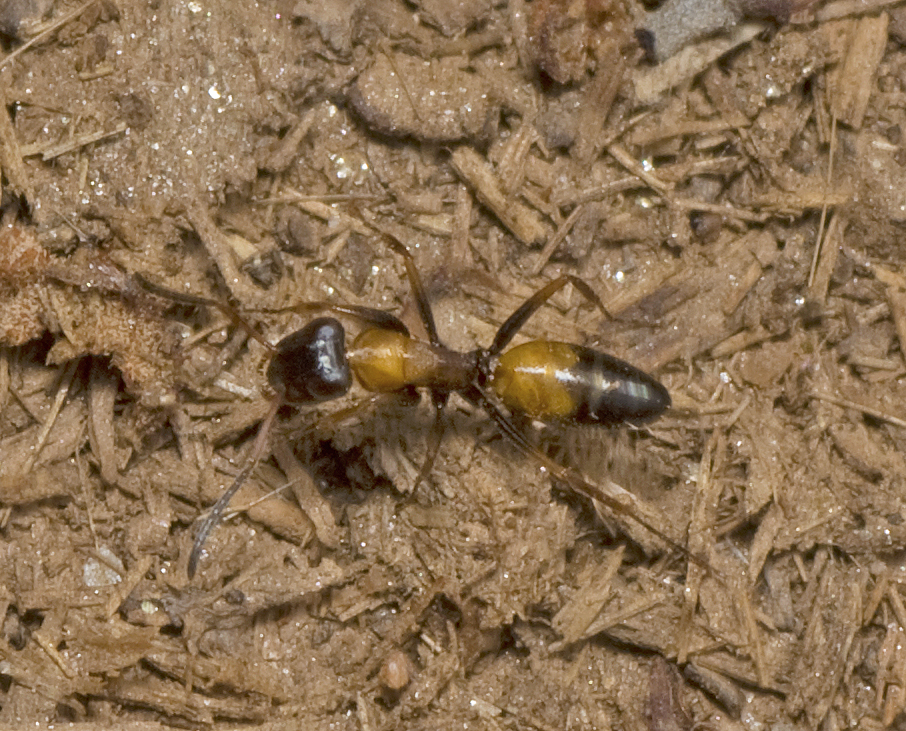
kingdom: Animalia
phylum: Arthropoda
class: Insecta
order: Hymenoptera
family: Formicidae
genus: Opisthopsis
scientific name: Opisthopsis pictus
